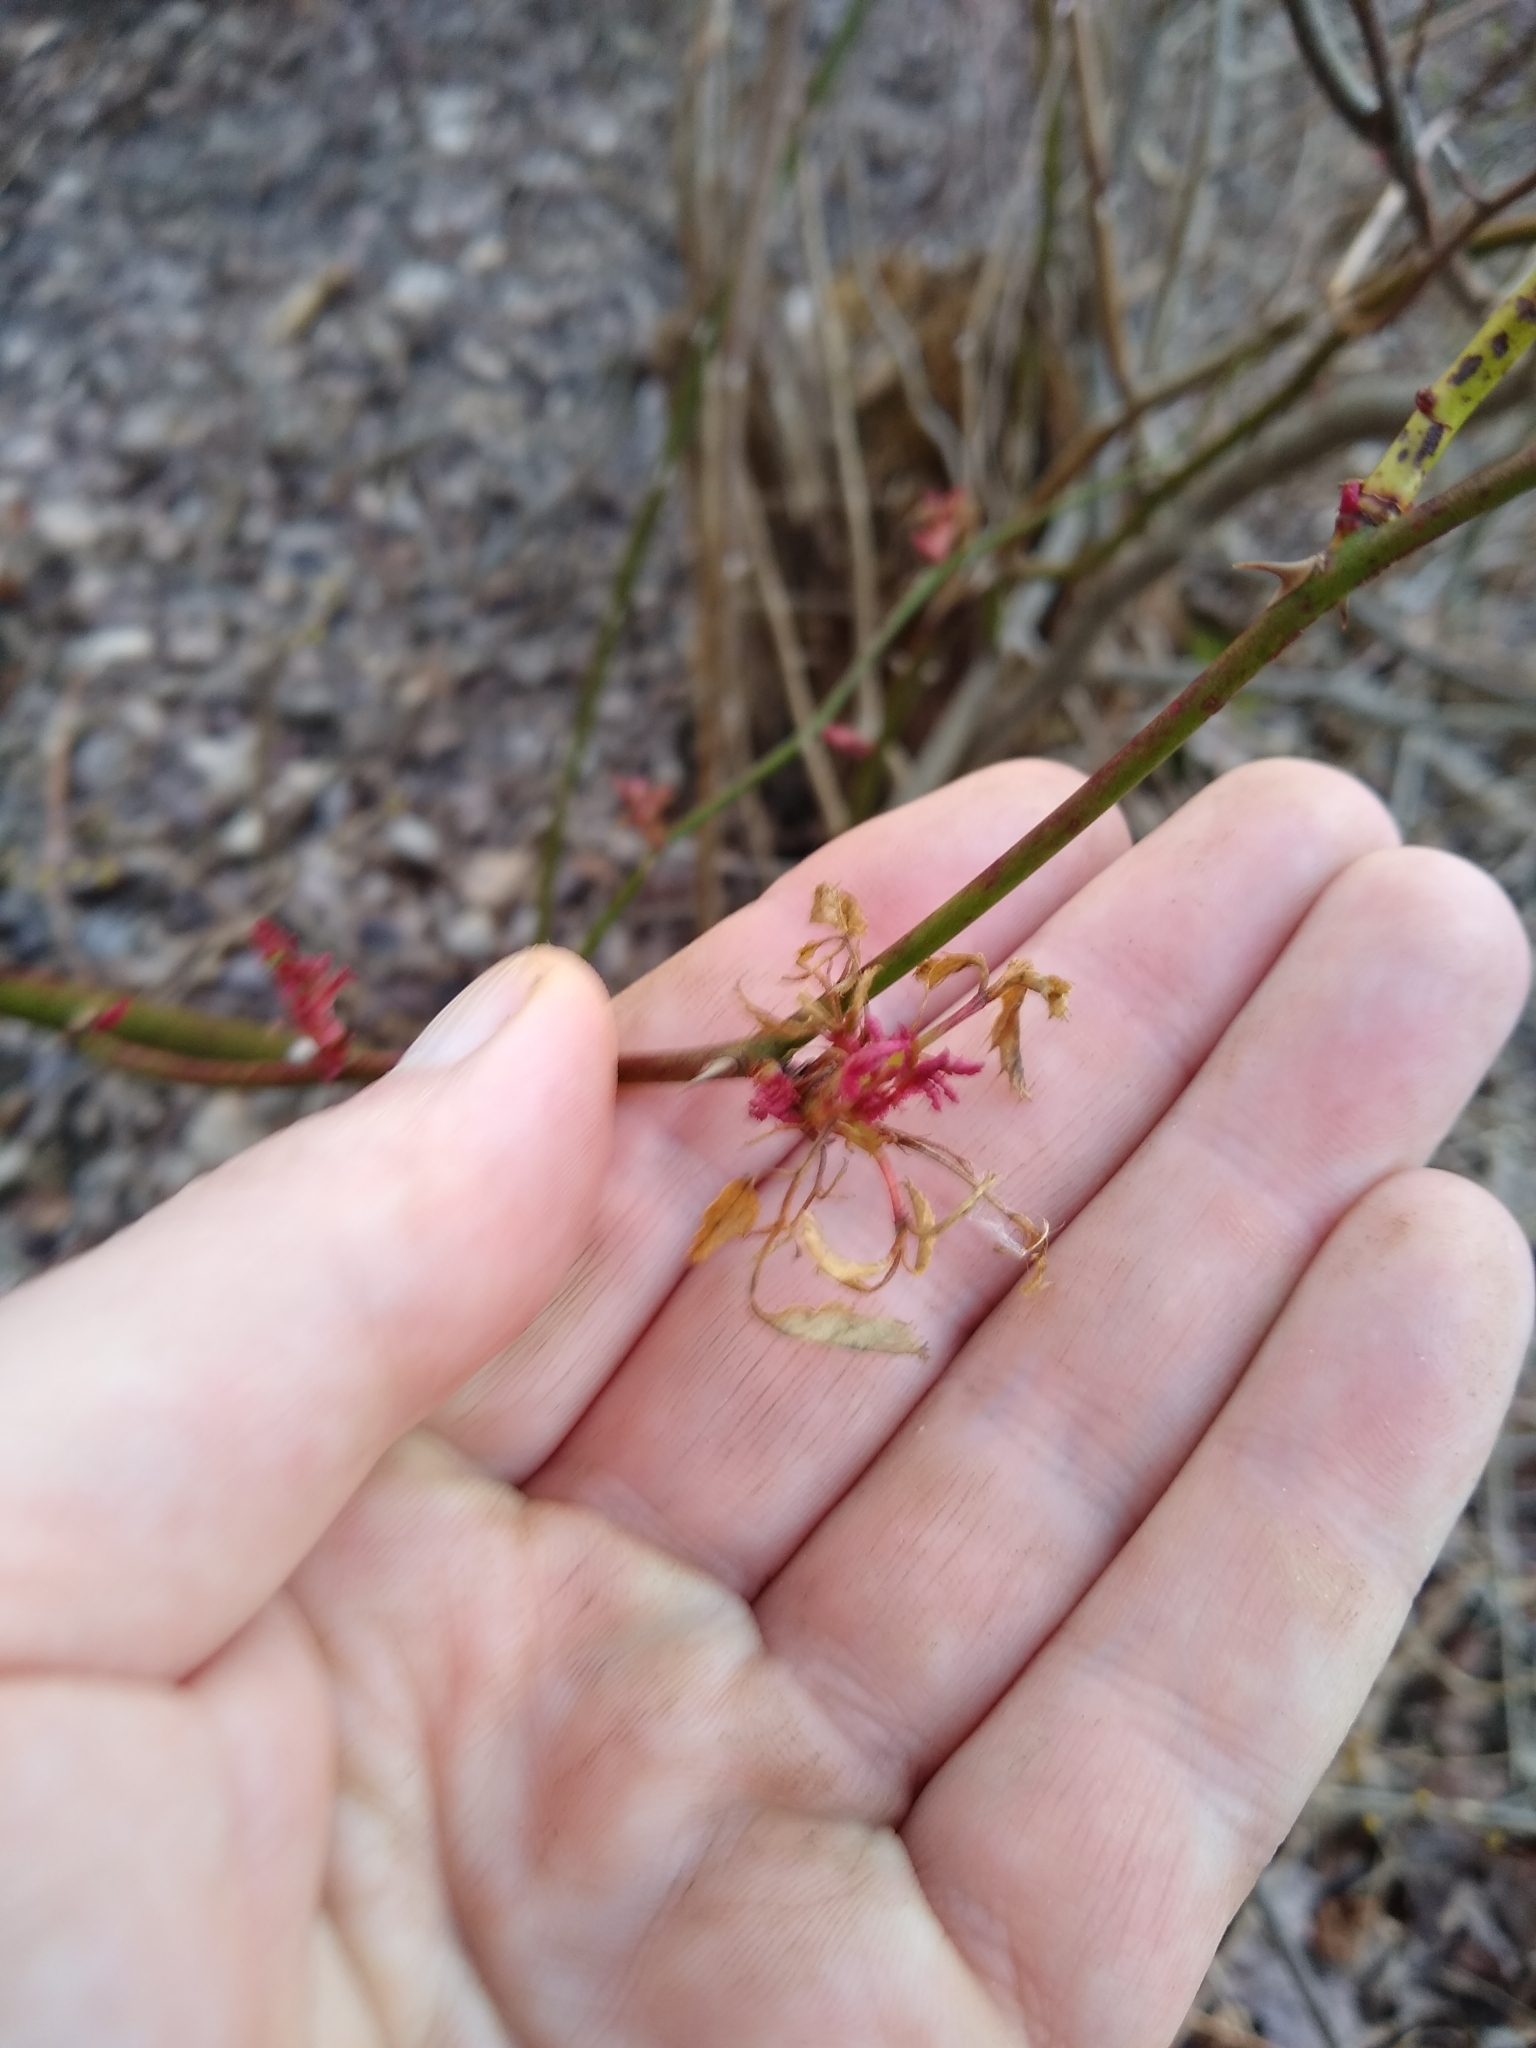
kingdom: Viruses
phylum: Negarnaviricota
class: Ellioviricetes
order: Bunyavirales
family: Fimoviridae
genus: Emaravirus
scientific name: Emaravirus rosae
